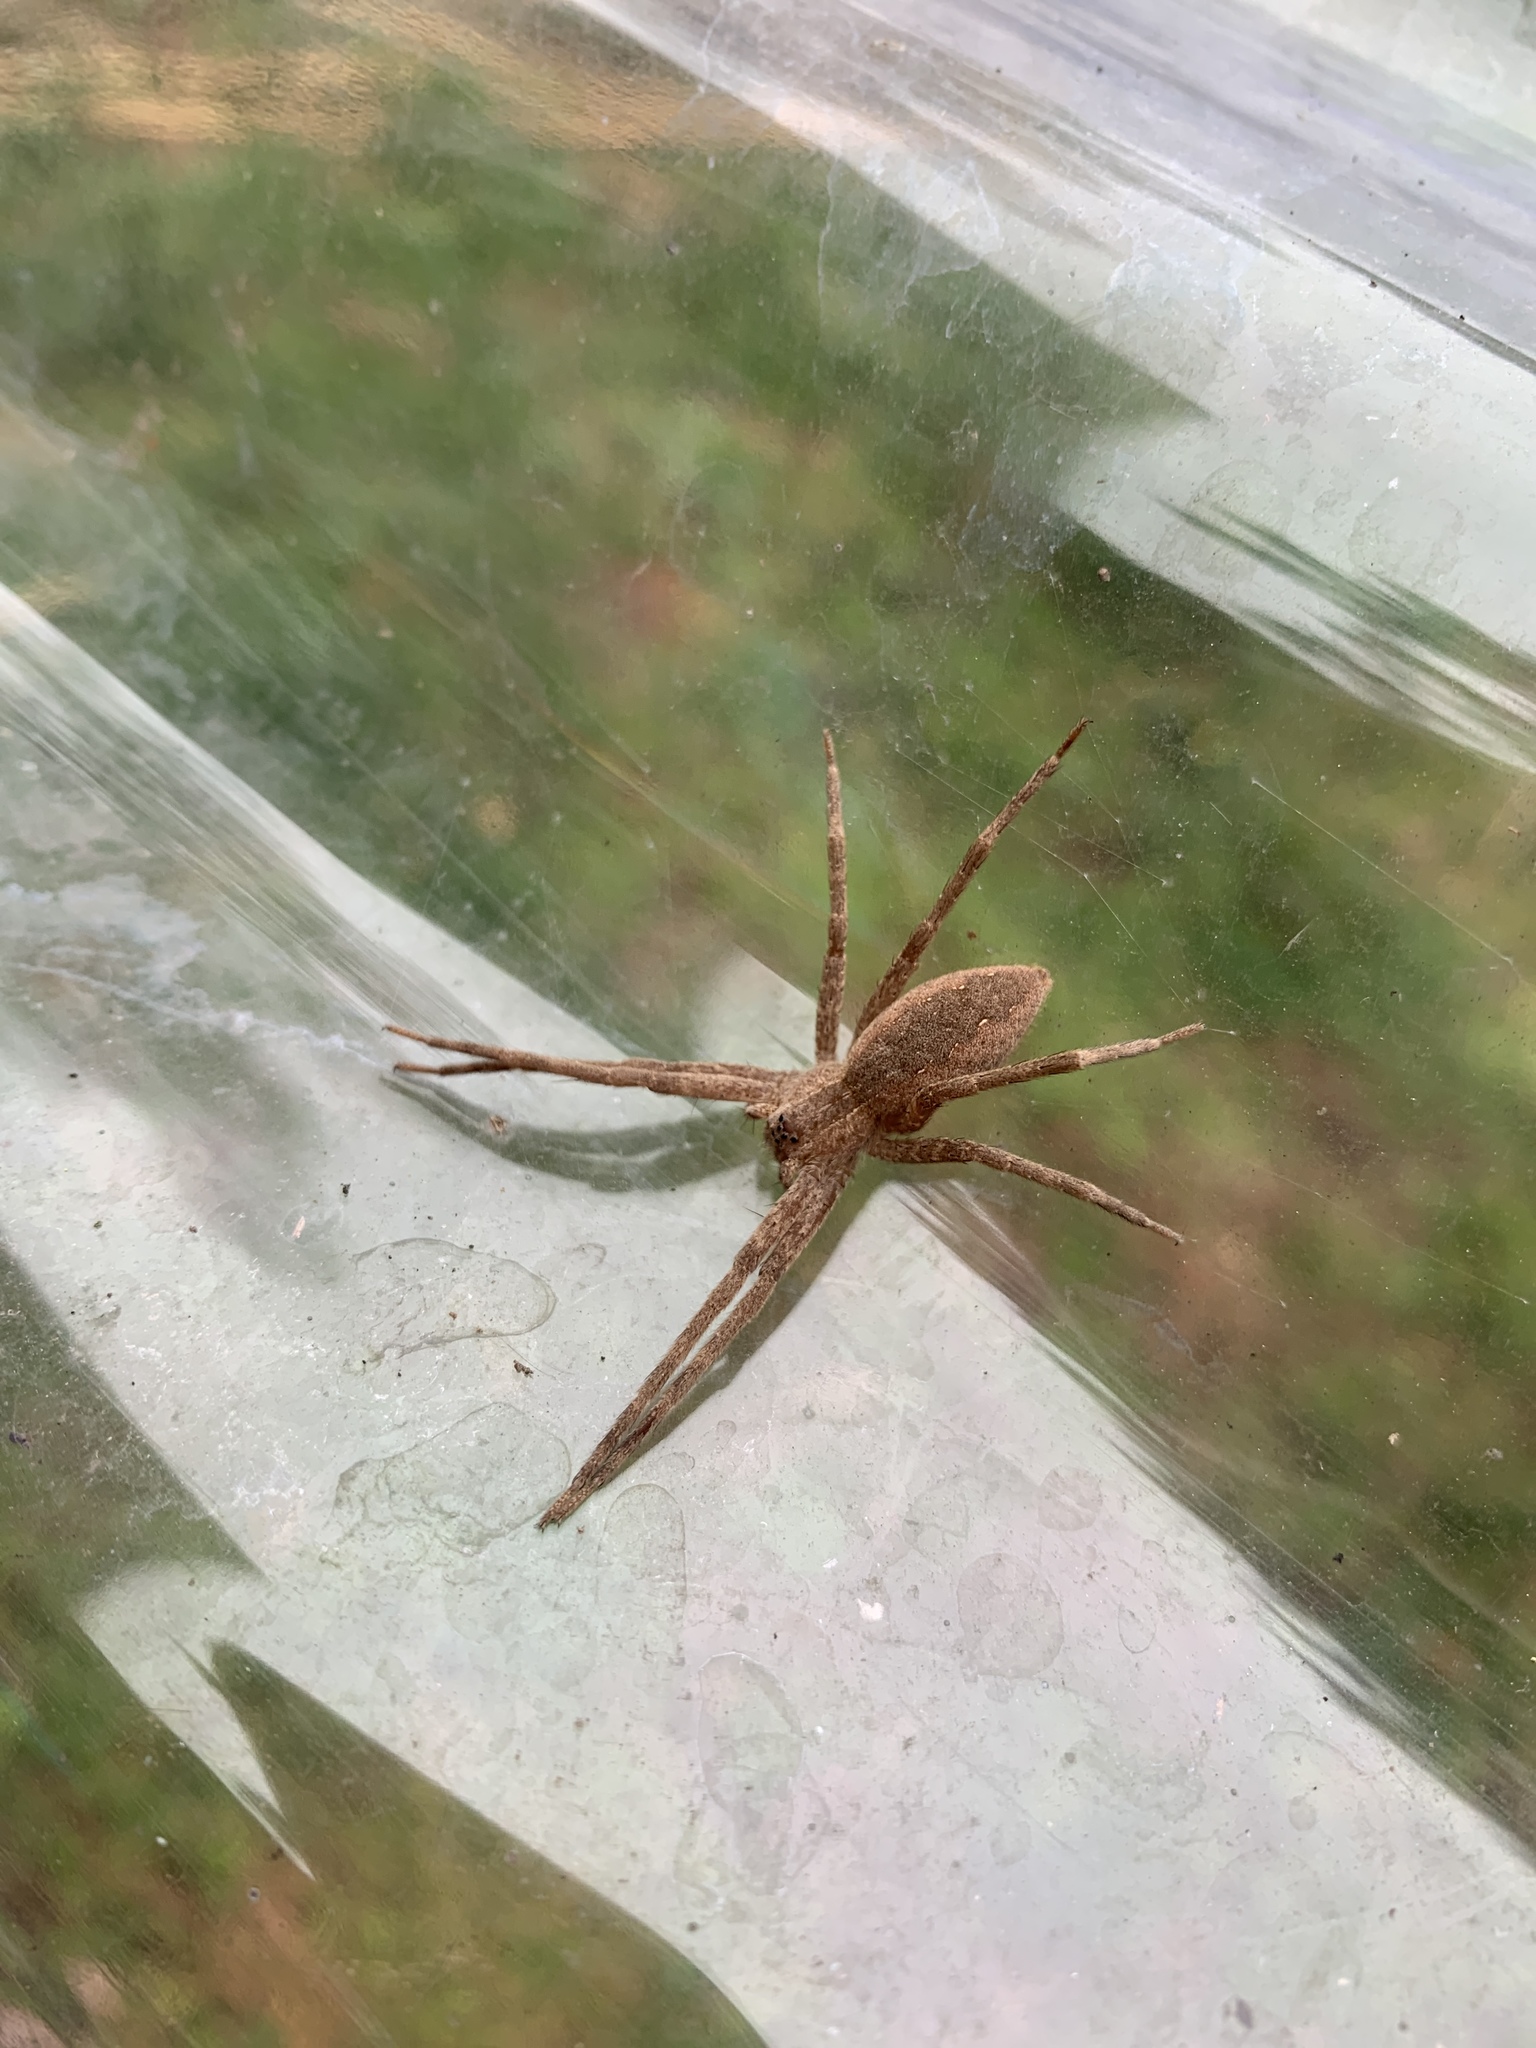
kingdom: Animalia
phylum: Arthropoda
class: Arachnida
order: Araneae
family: Pisauridae
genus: Pisaurina
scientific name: Pisaurina mira
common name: American nursery web spider
